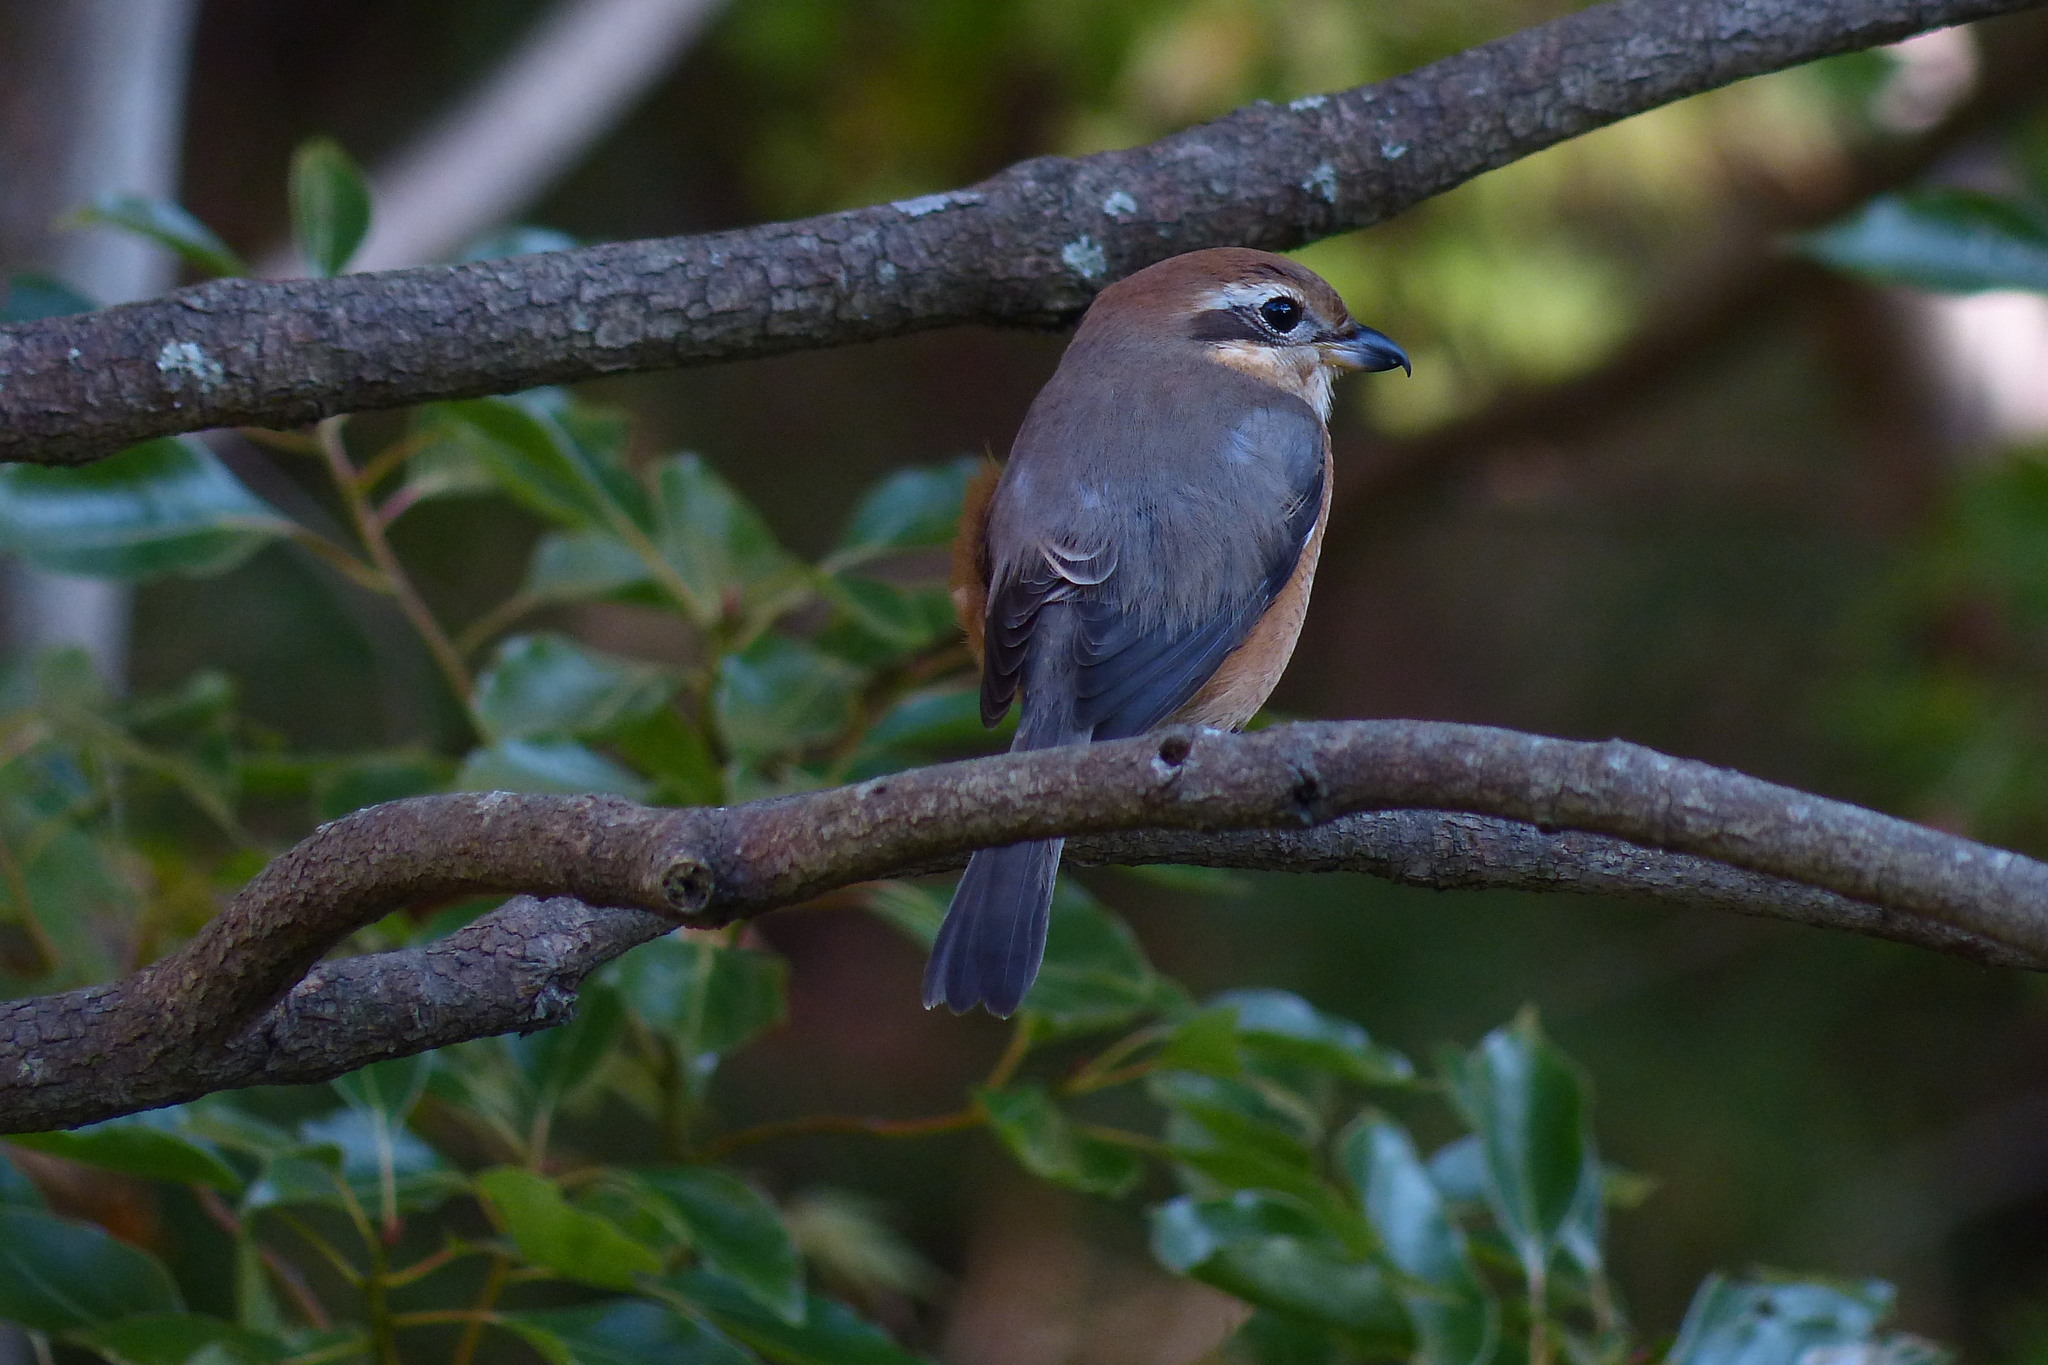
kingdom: Animalia
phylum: Chordata
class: Aves
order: Passeriformes
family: Laniidae
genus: Lanius
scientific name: Lanius bucephalus
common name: Bull-headed shrike
